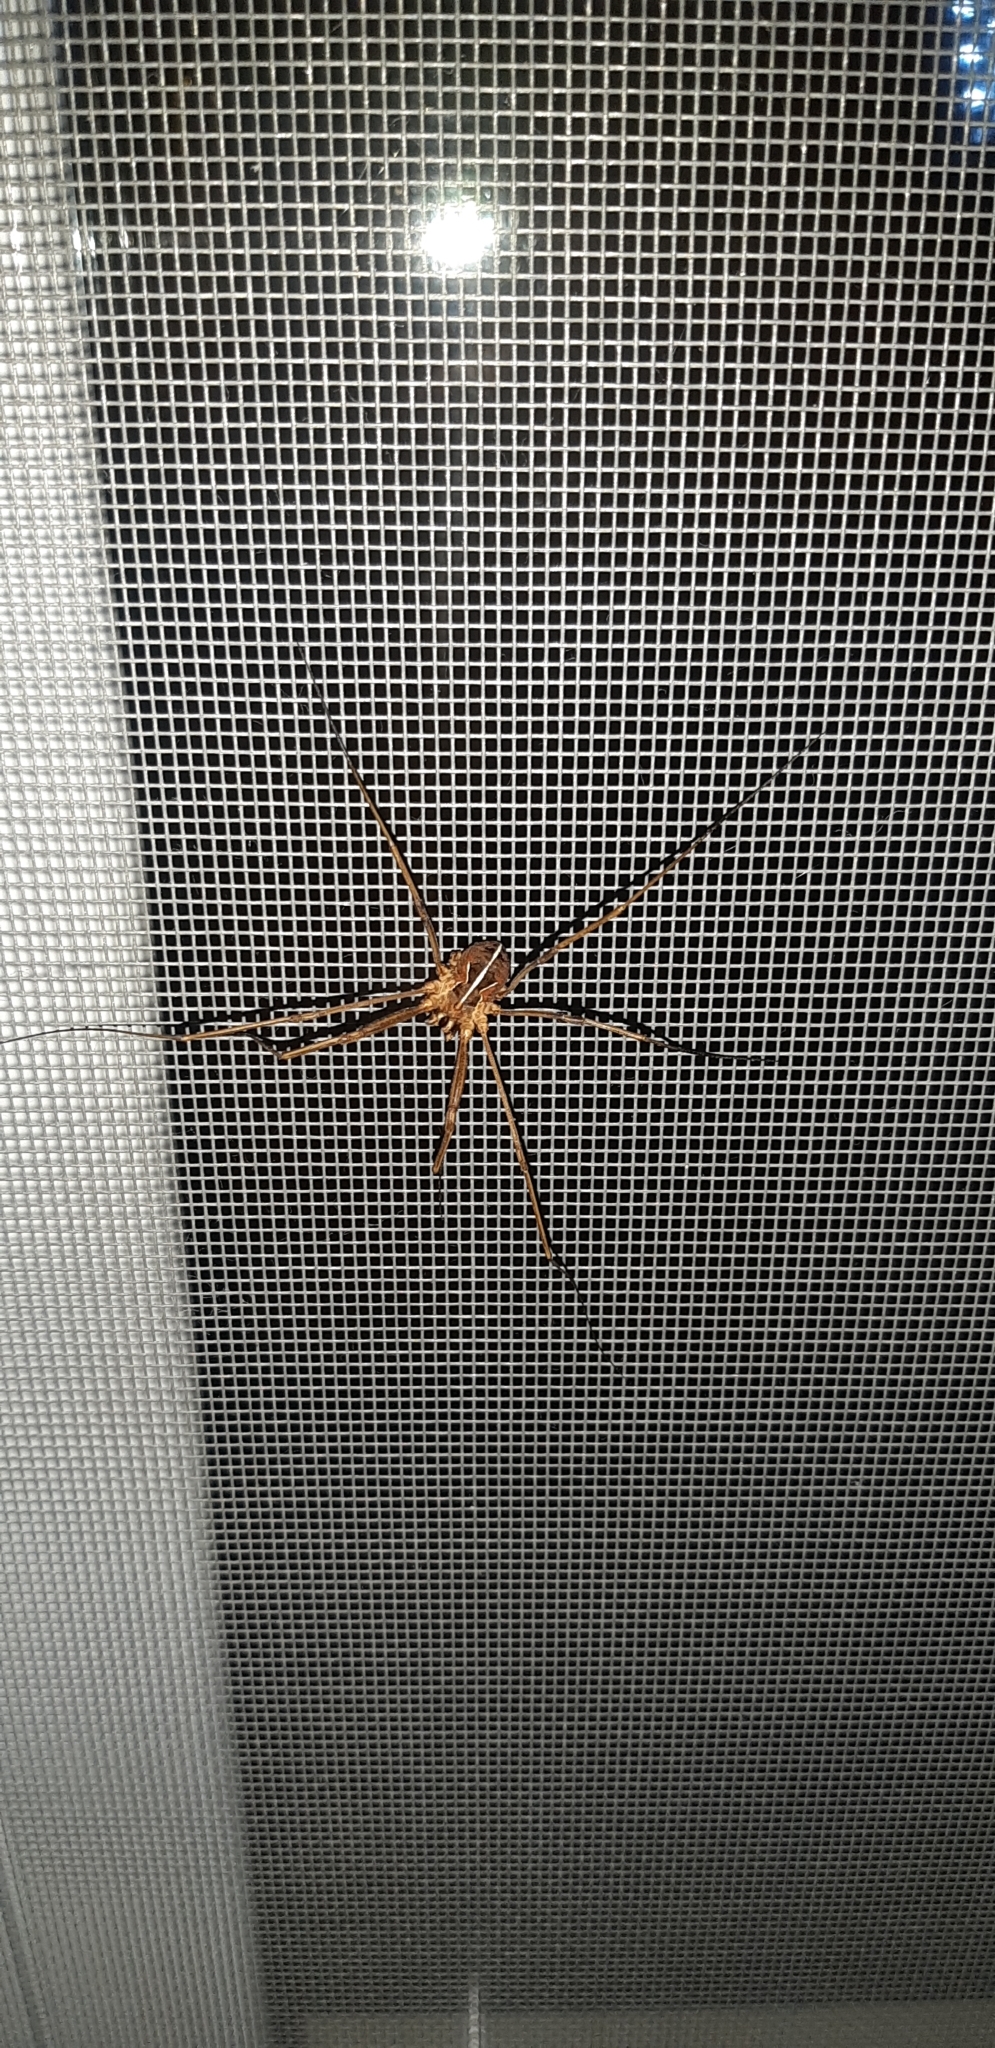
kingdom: Animalia
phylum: Arthropoda
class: Arachnida
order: Opiliones
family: Phalangiidae
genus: Metaphalangium
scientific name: Metaphalangium cirtanum
